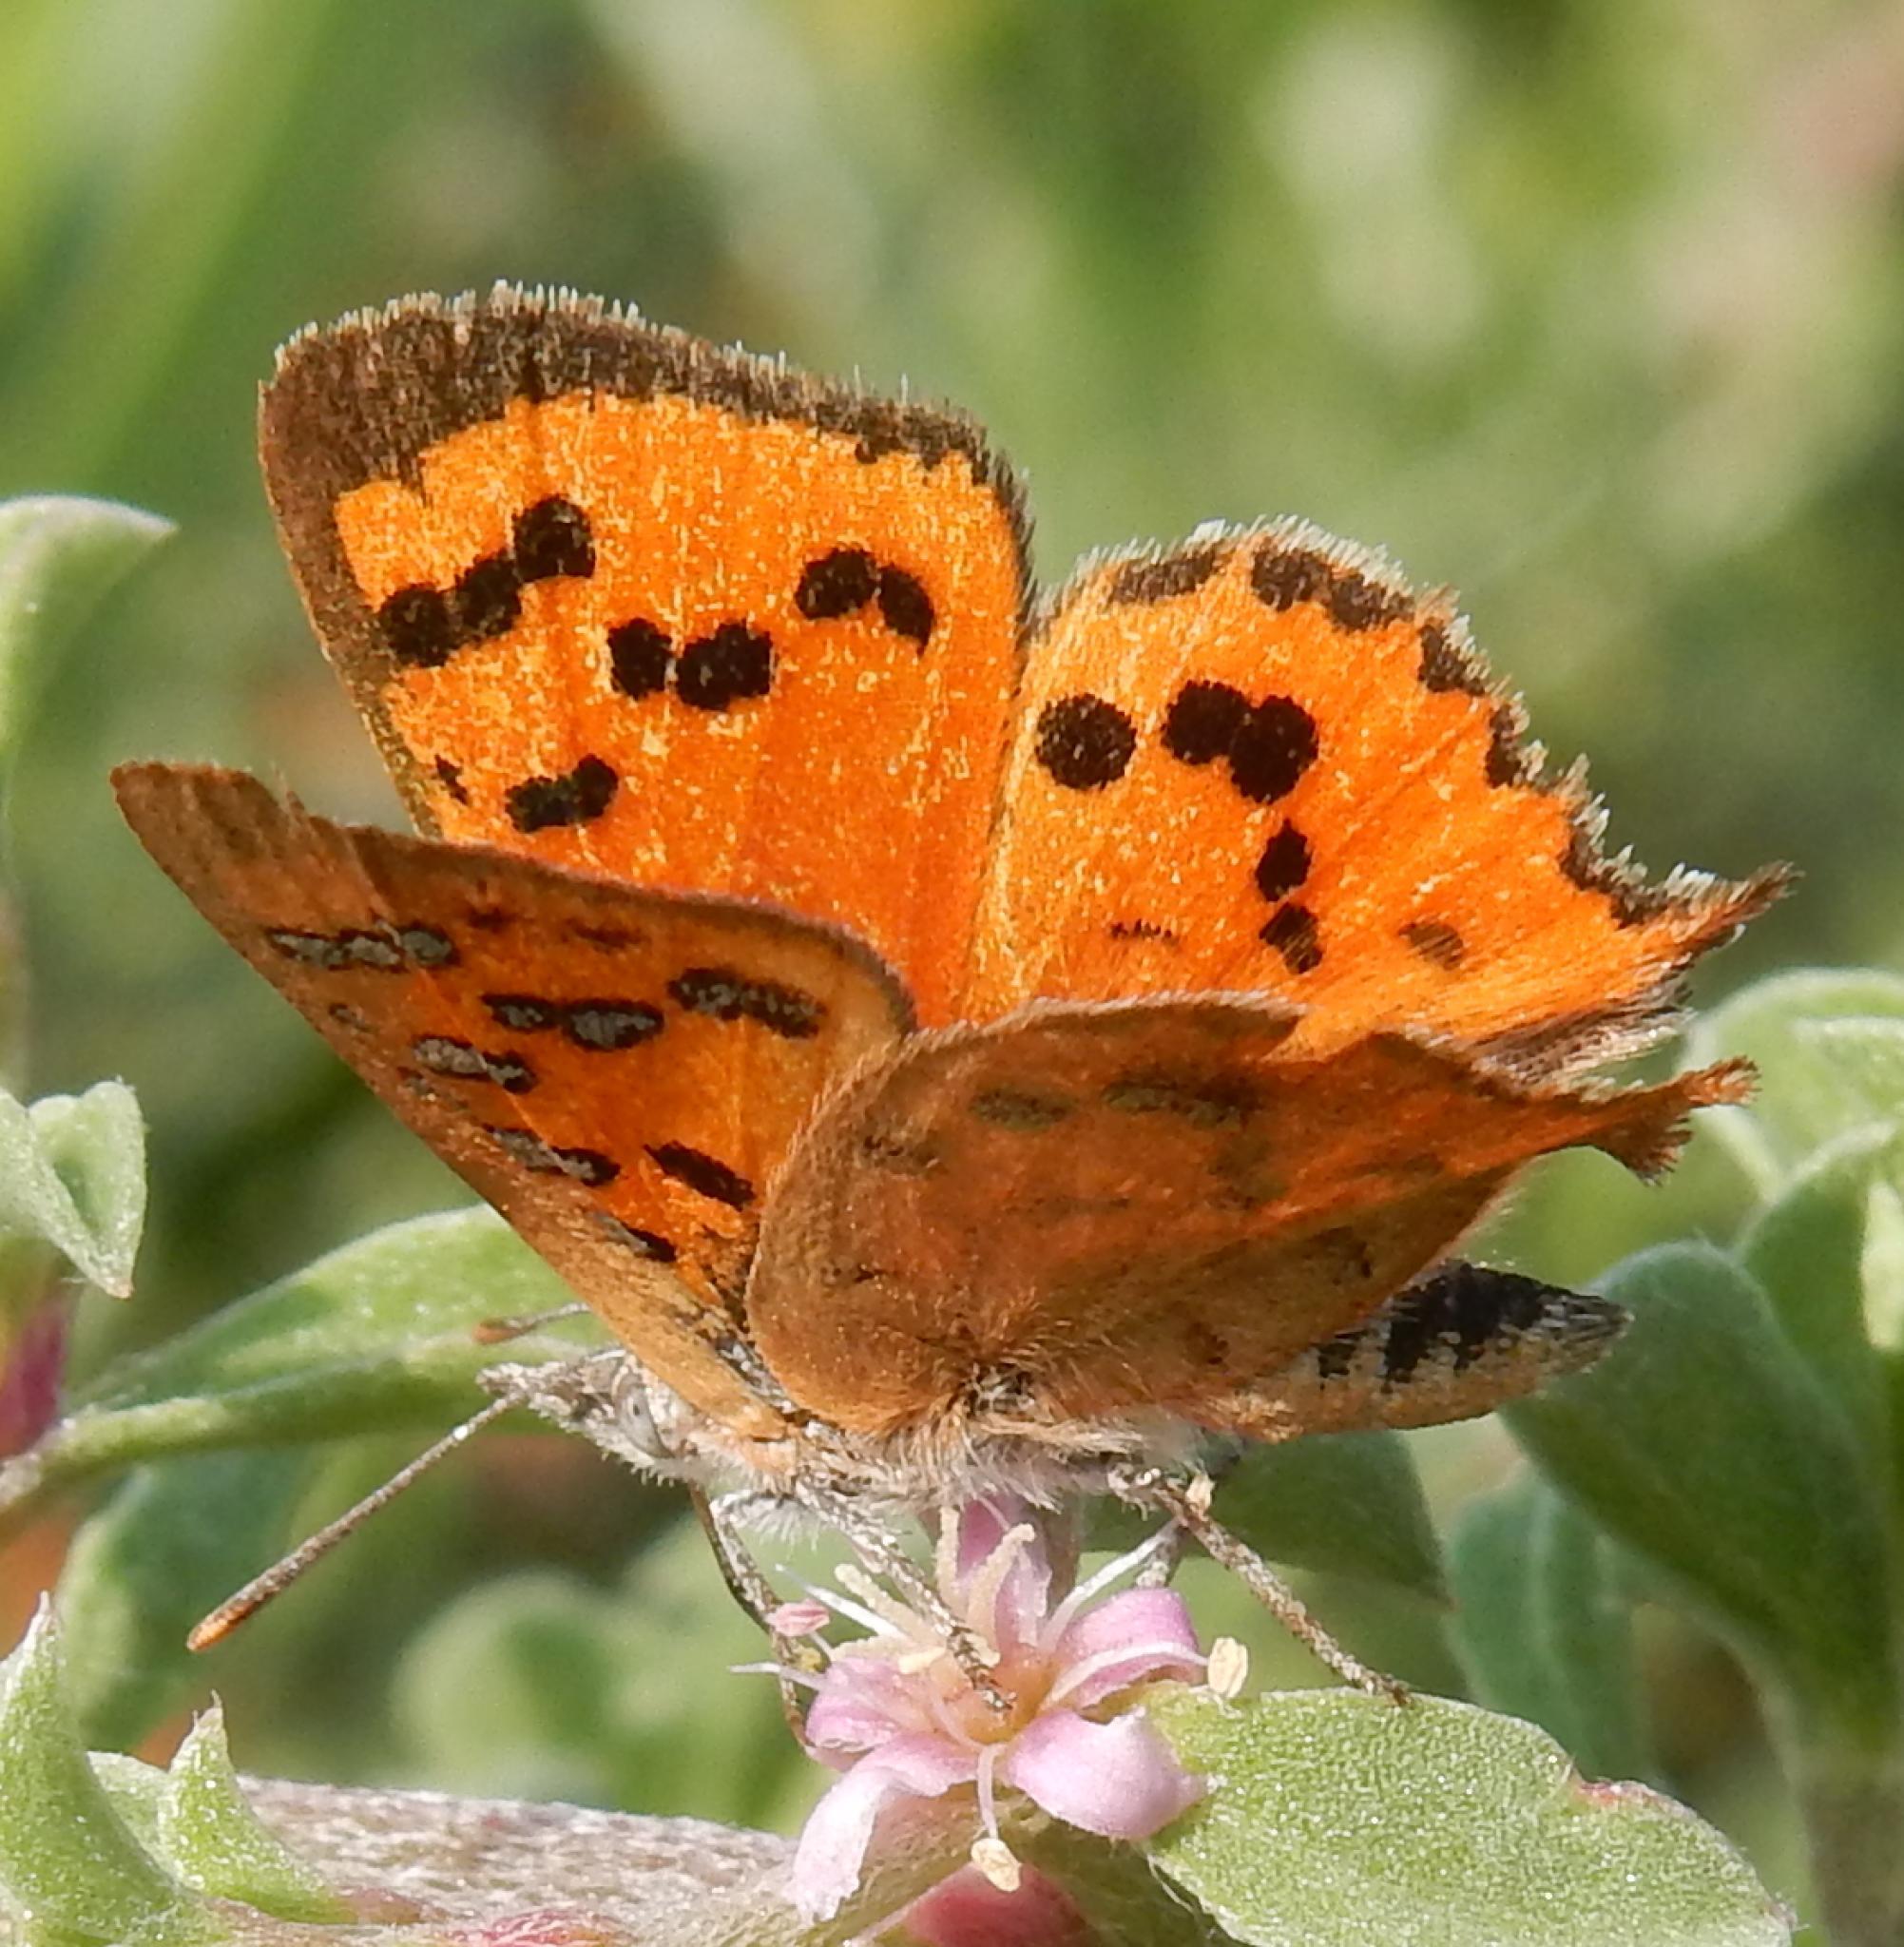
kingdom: Animalia
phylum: Arthropoda
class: Insecta
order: Lepidoptera
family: Lycaenidae
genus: Zeritis
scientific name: Zeritis chrysaor
